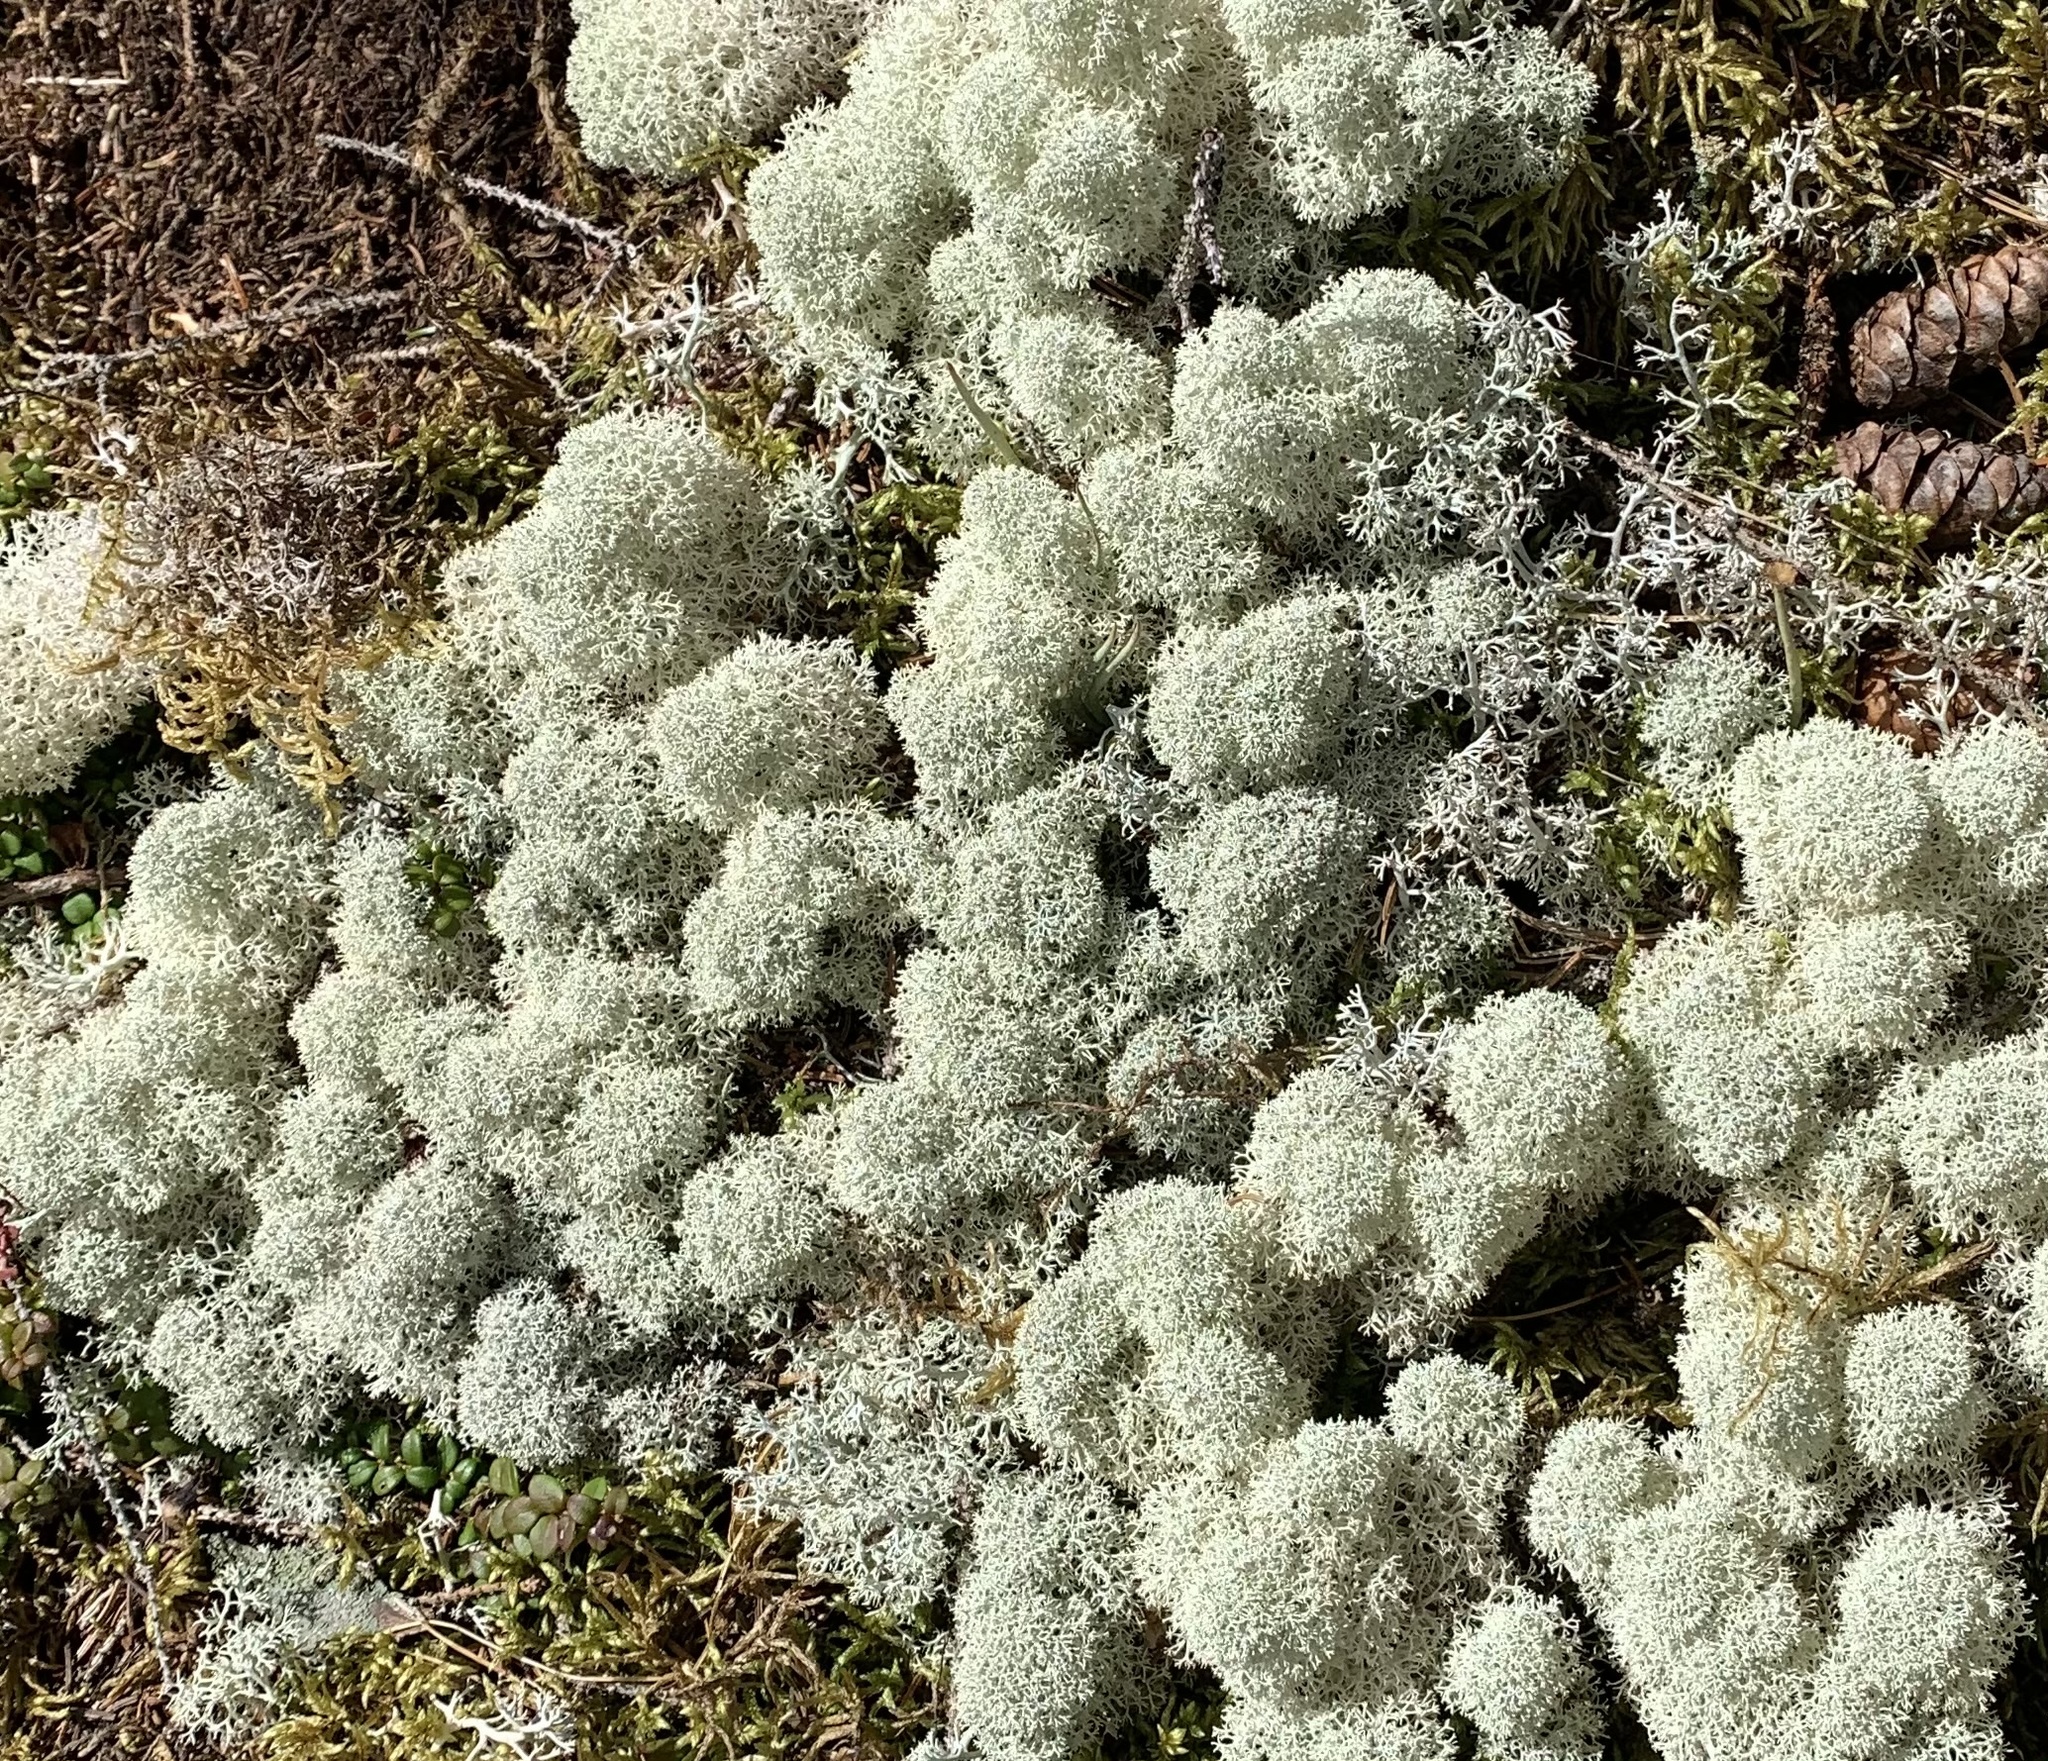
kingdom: Fungi
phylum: Ascomycota
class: Lecanoromycetes
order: Lecanorales
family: Cladoniaceae
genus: Cladonia
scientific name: Cladonia stellaris
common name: Star-tipped reindeer lichen
